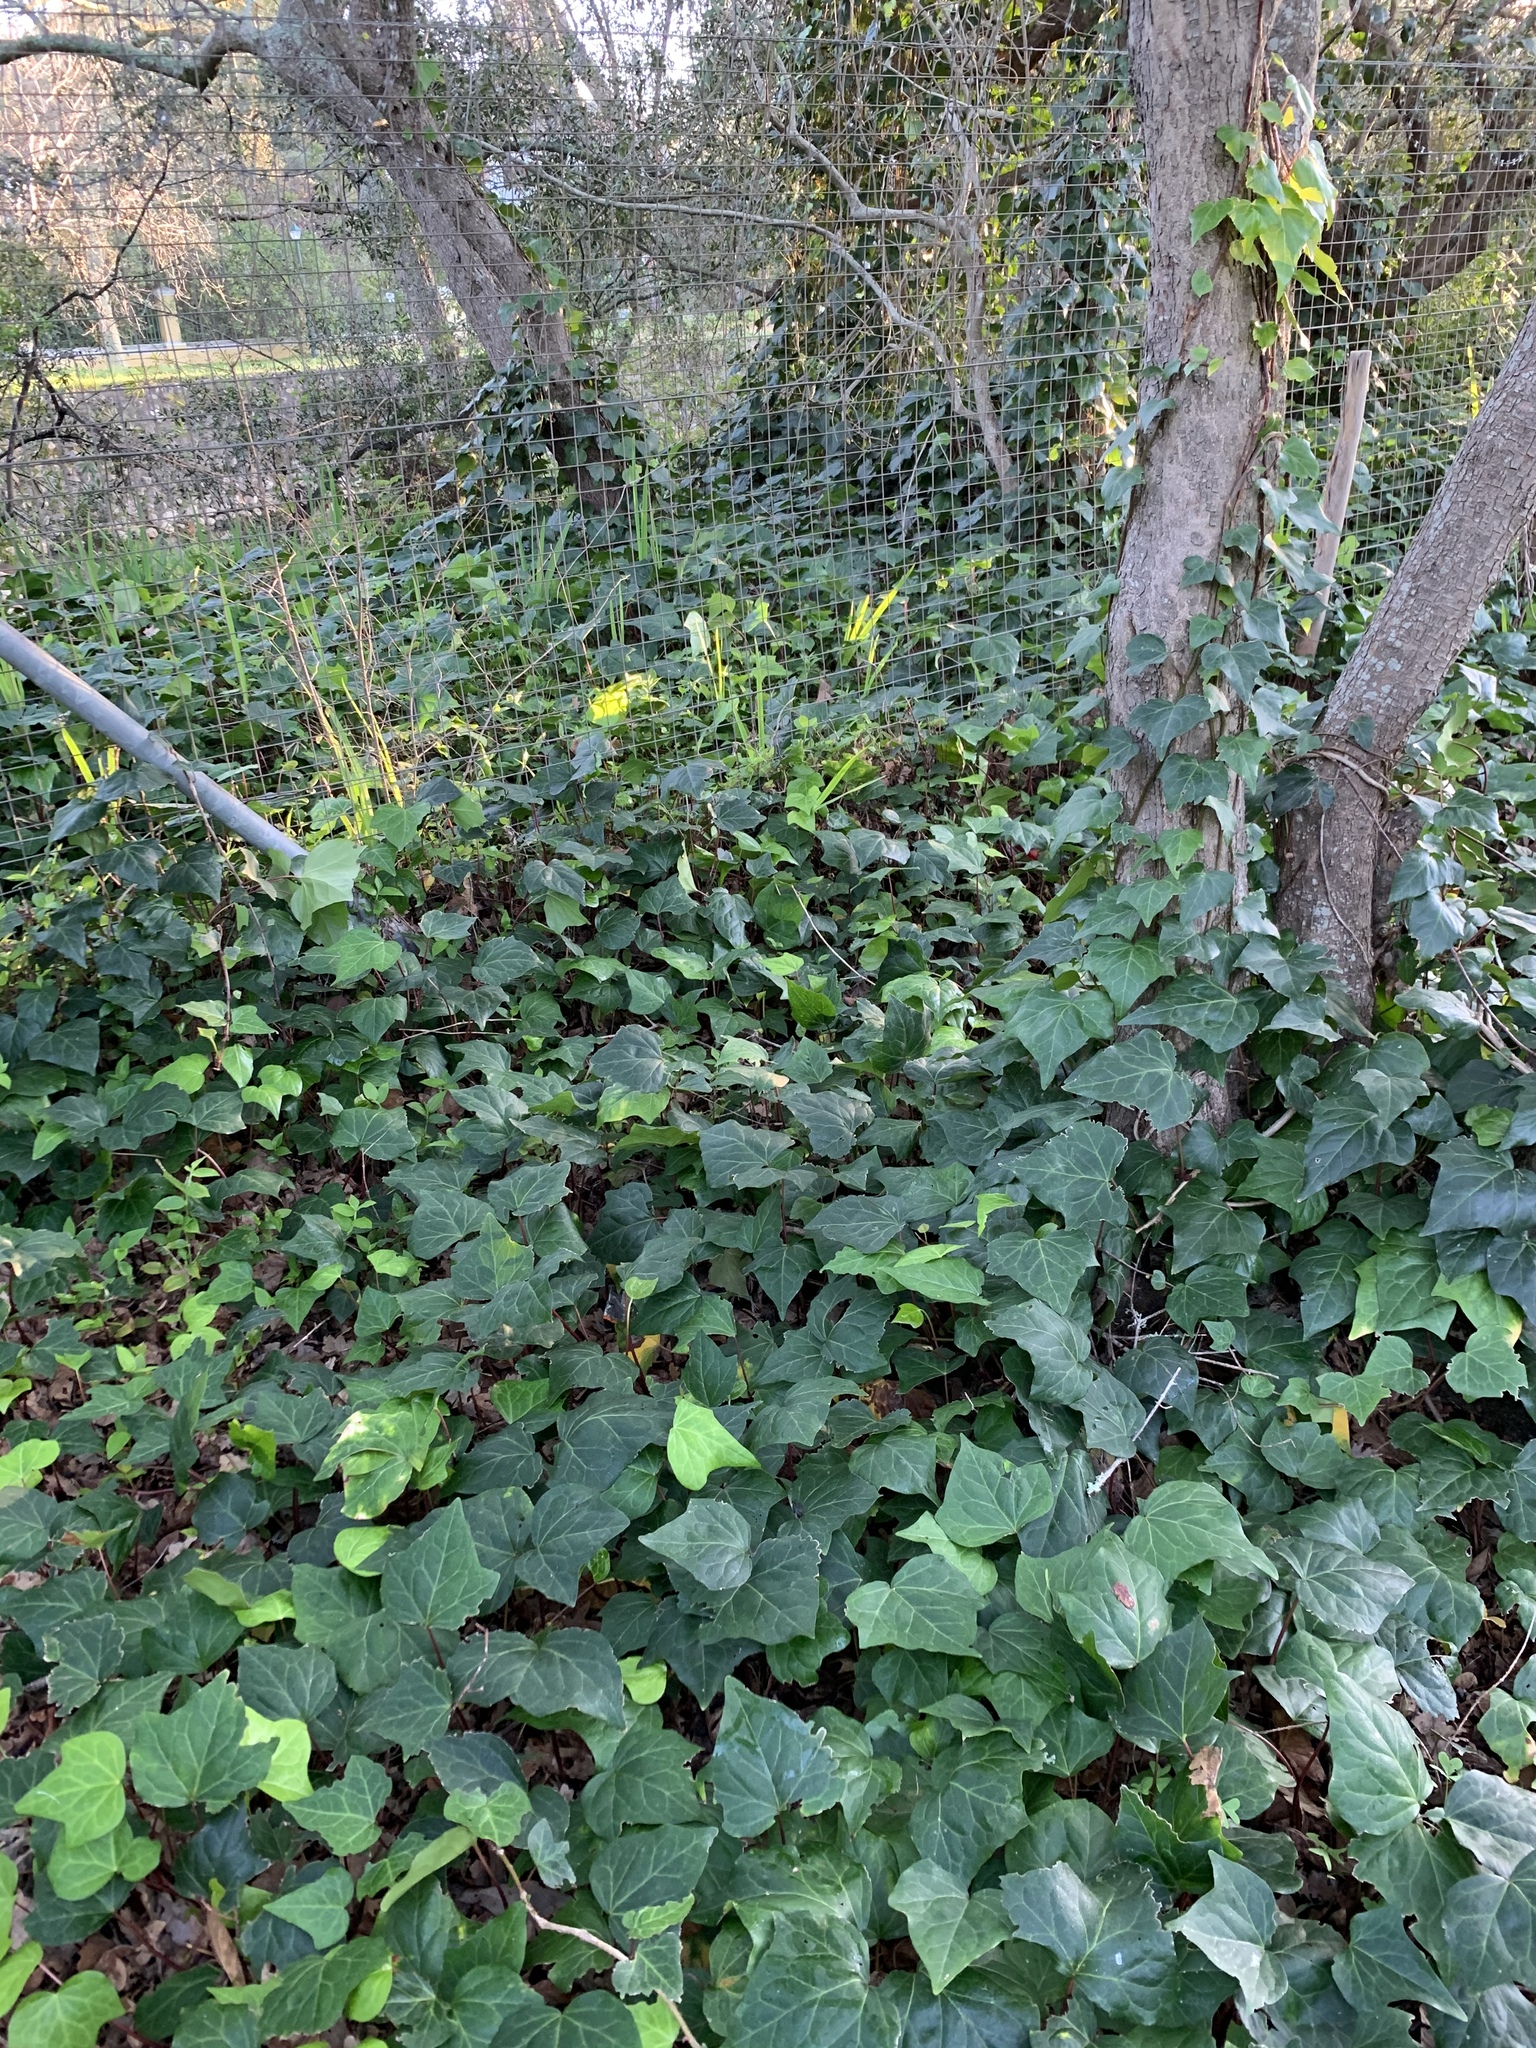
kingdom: Plantae
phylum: Tracheophyta
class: Magnoliopsida
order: Apiales
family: Araliaceae
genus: Hedera
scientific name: Hedera canariensis
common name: Madeira ivy
